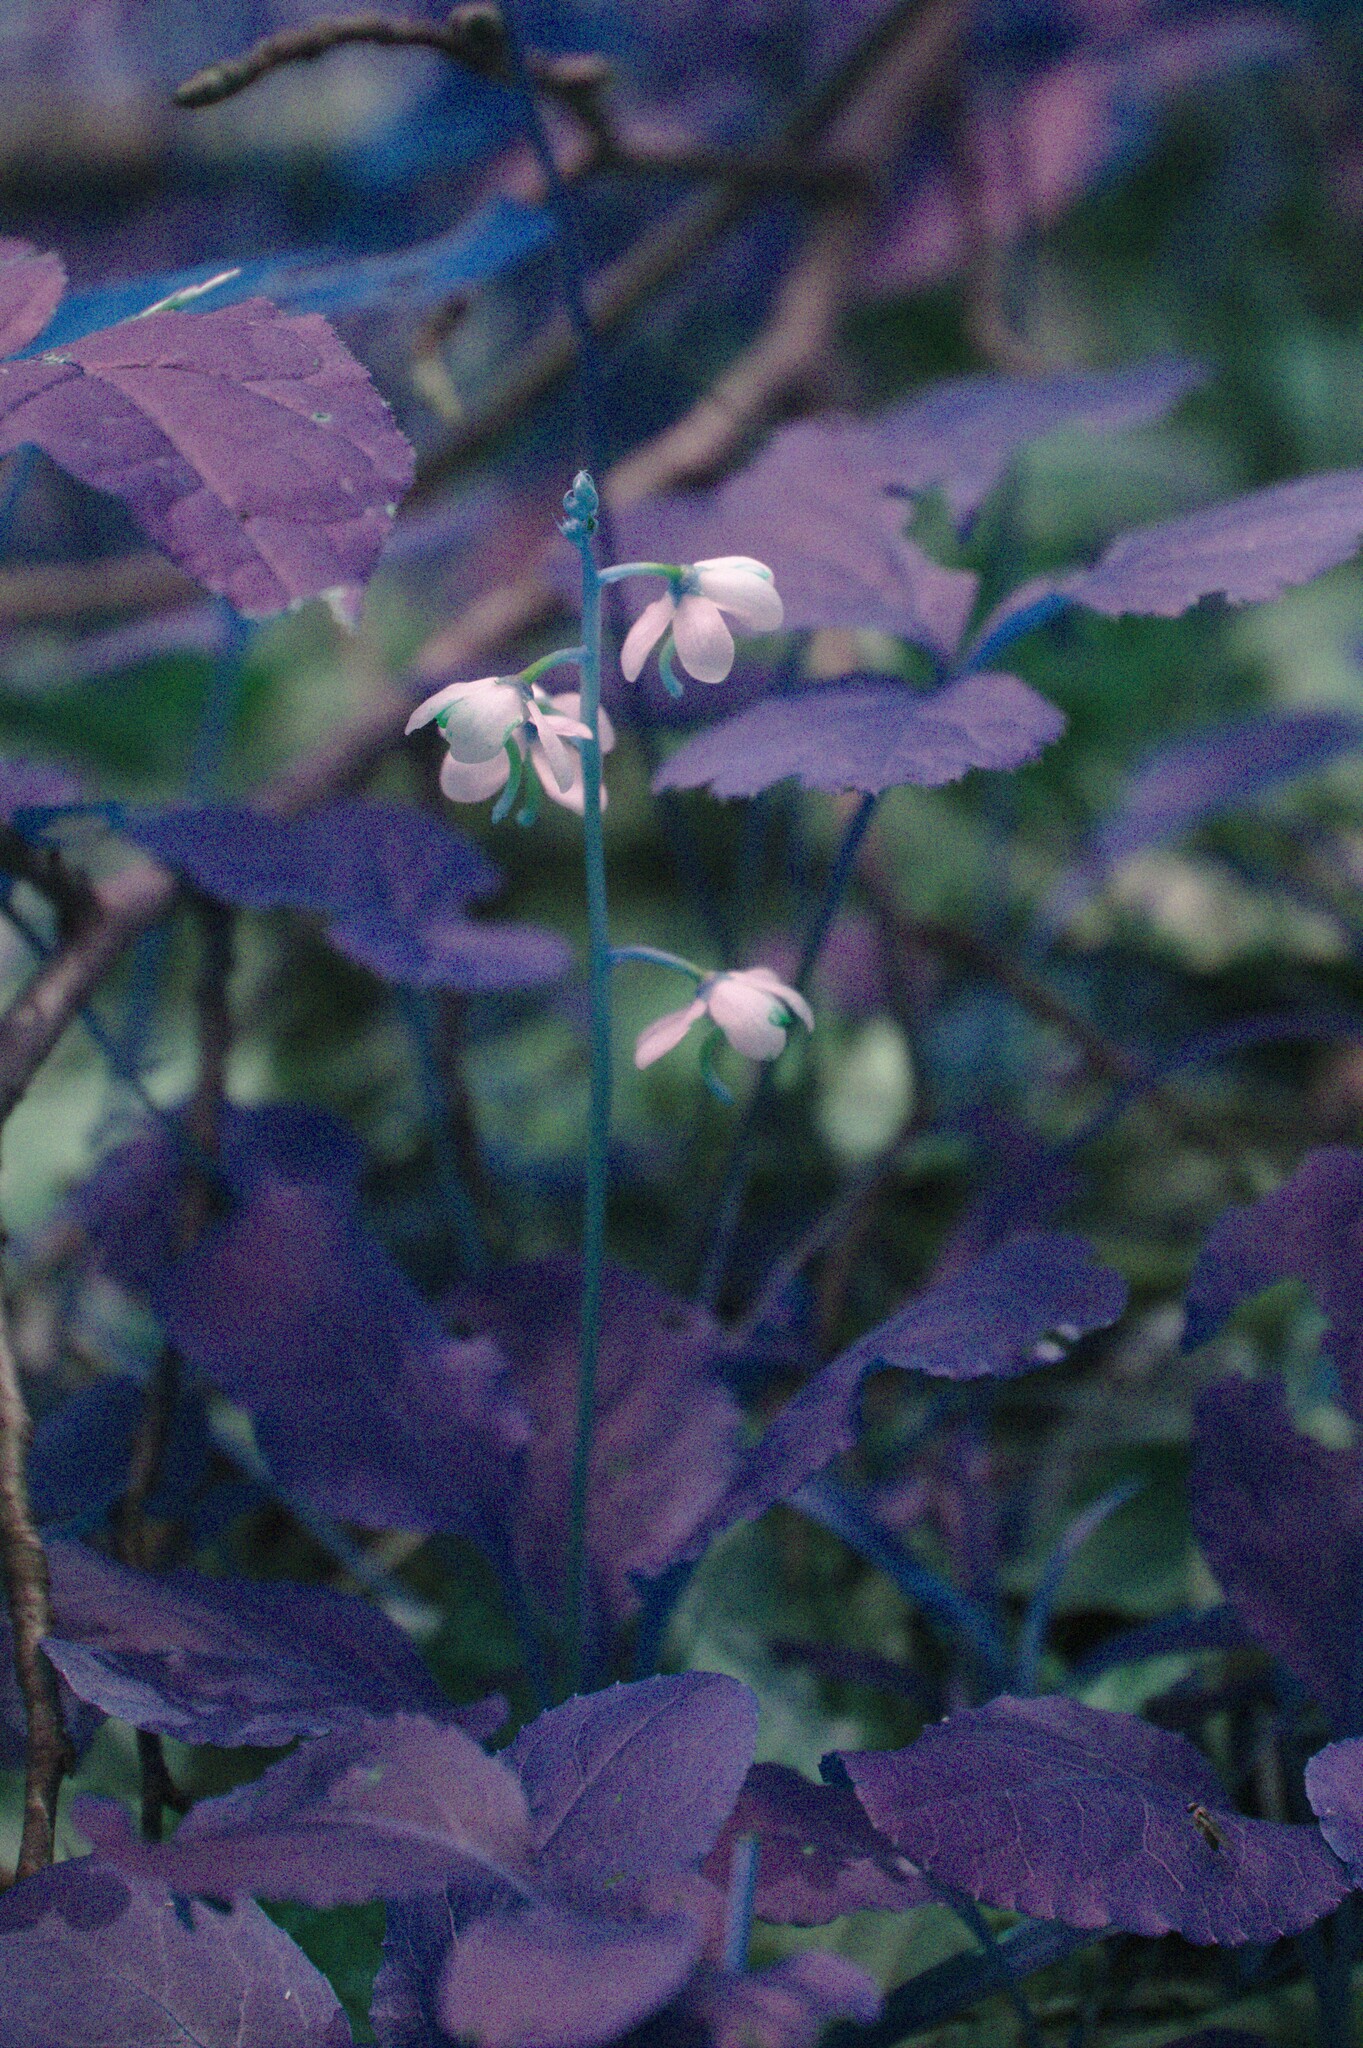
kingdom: Plantae
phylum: Tracheophyta
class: Magnoliopsida
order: Ericales
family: Ericaceae
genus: Pyrola
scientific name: Pyrola elliptica
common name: Shinleaf
